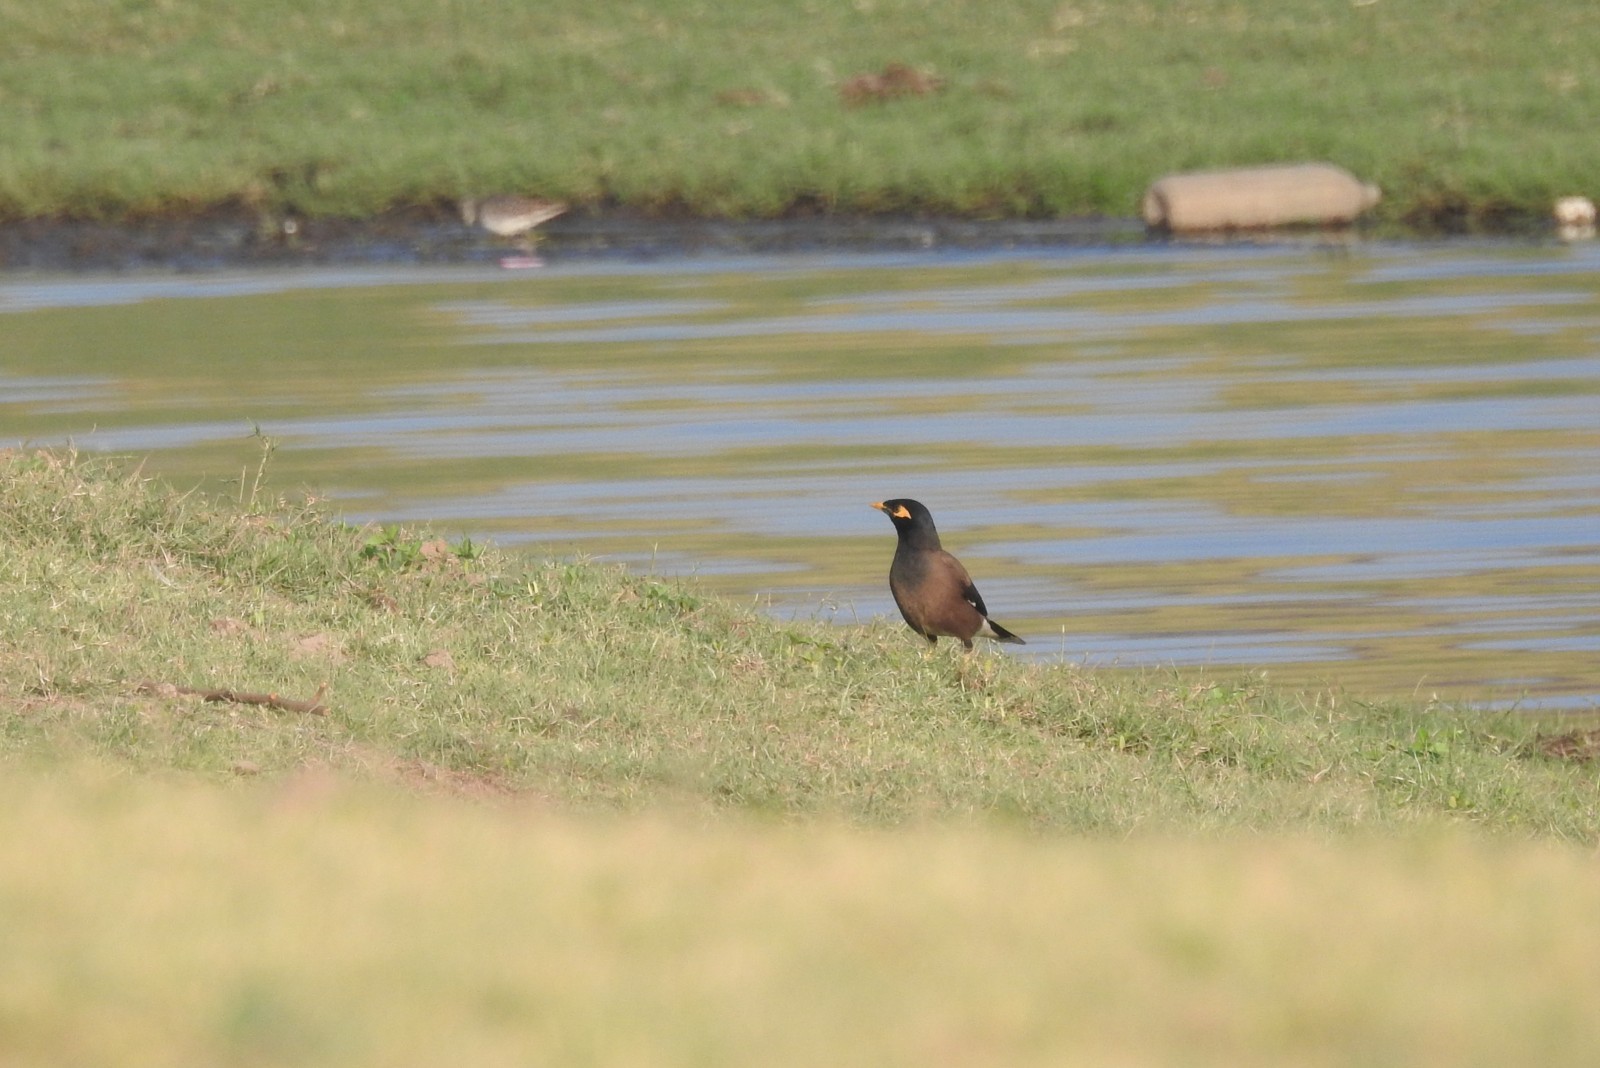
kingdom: Animalia
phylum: Chordata
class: Aves
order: Passeriformes
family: Sturnidae
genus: Acridotheres
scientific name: Acridotheres tristis
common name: Common myna
